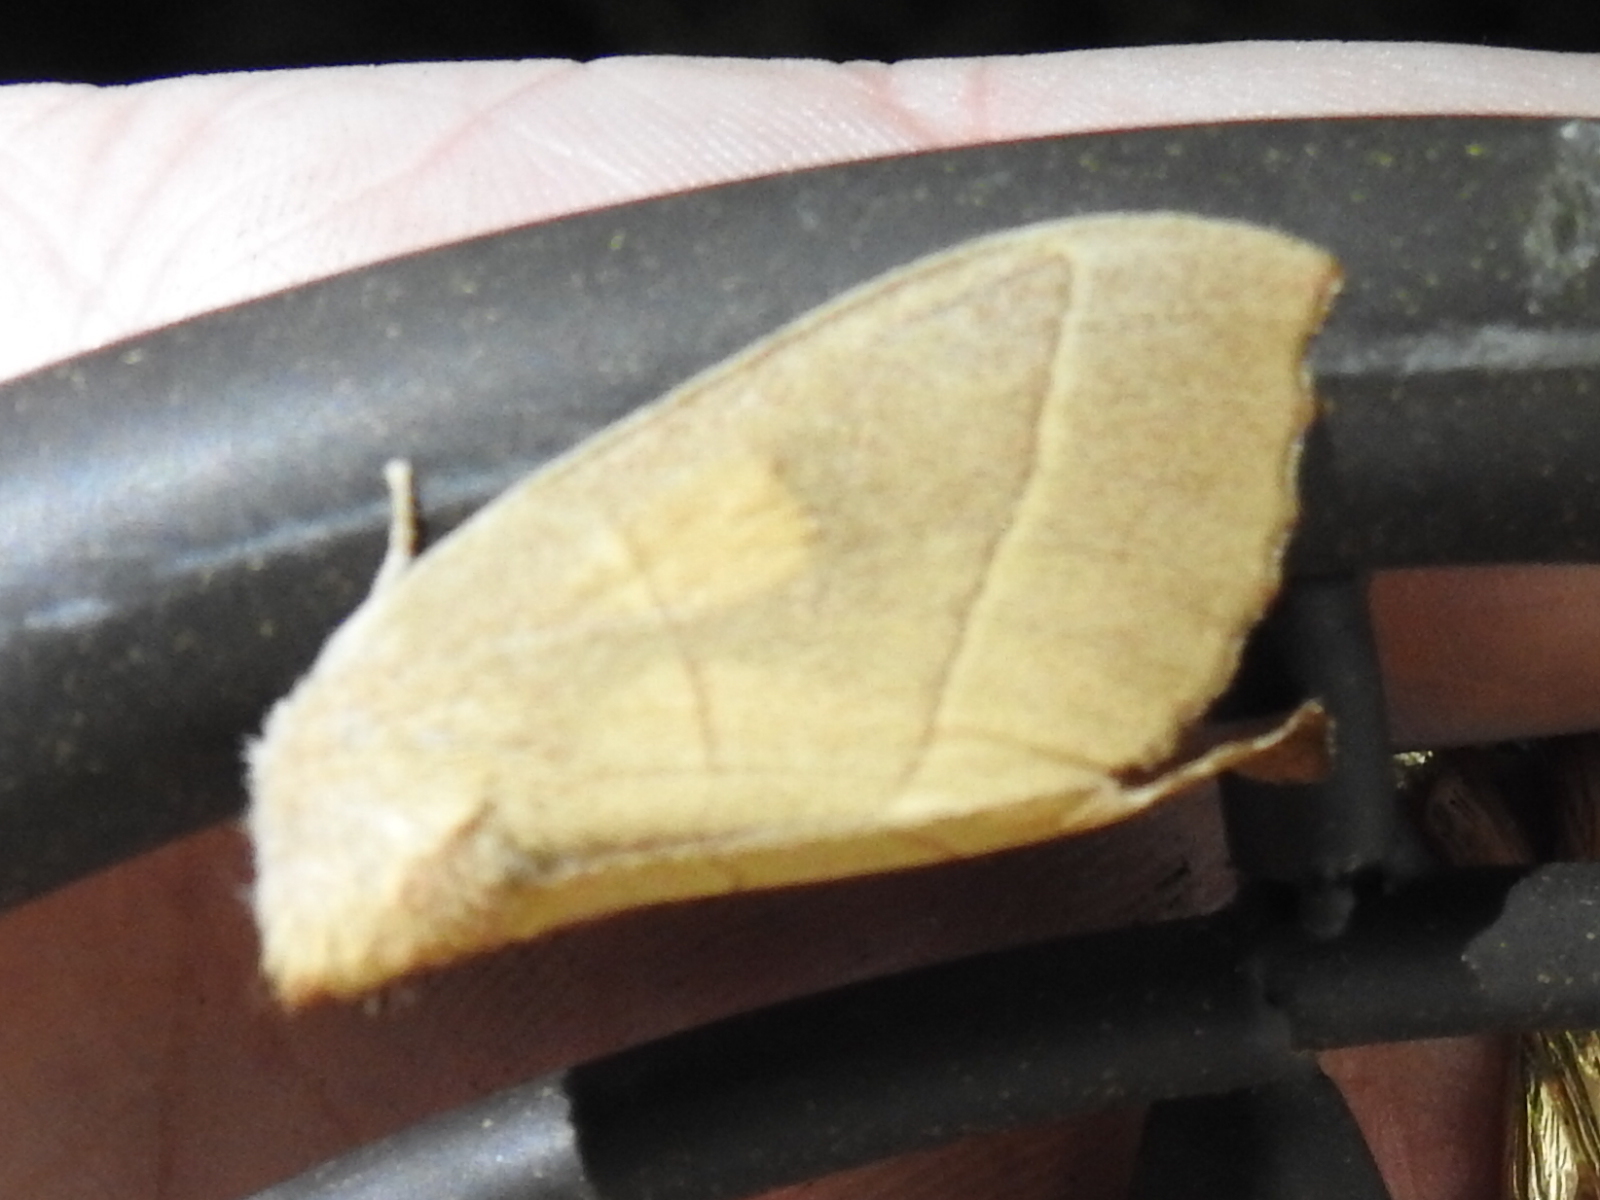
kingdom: Animalia
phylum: Arthropoda
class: Insecta
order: Lepidoptera
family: Notodontidae
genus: Nadata
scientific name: Nadata gibbosa
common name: White-dotted prominent
